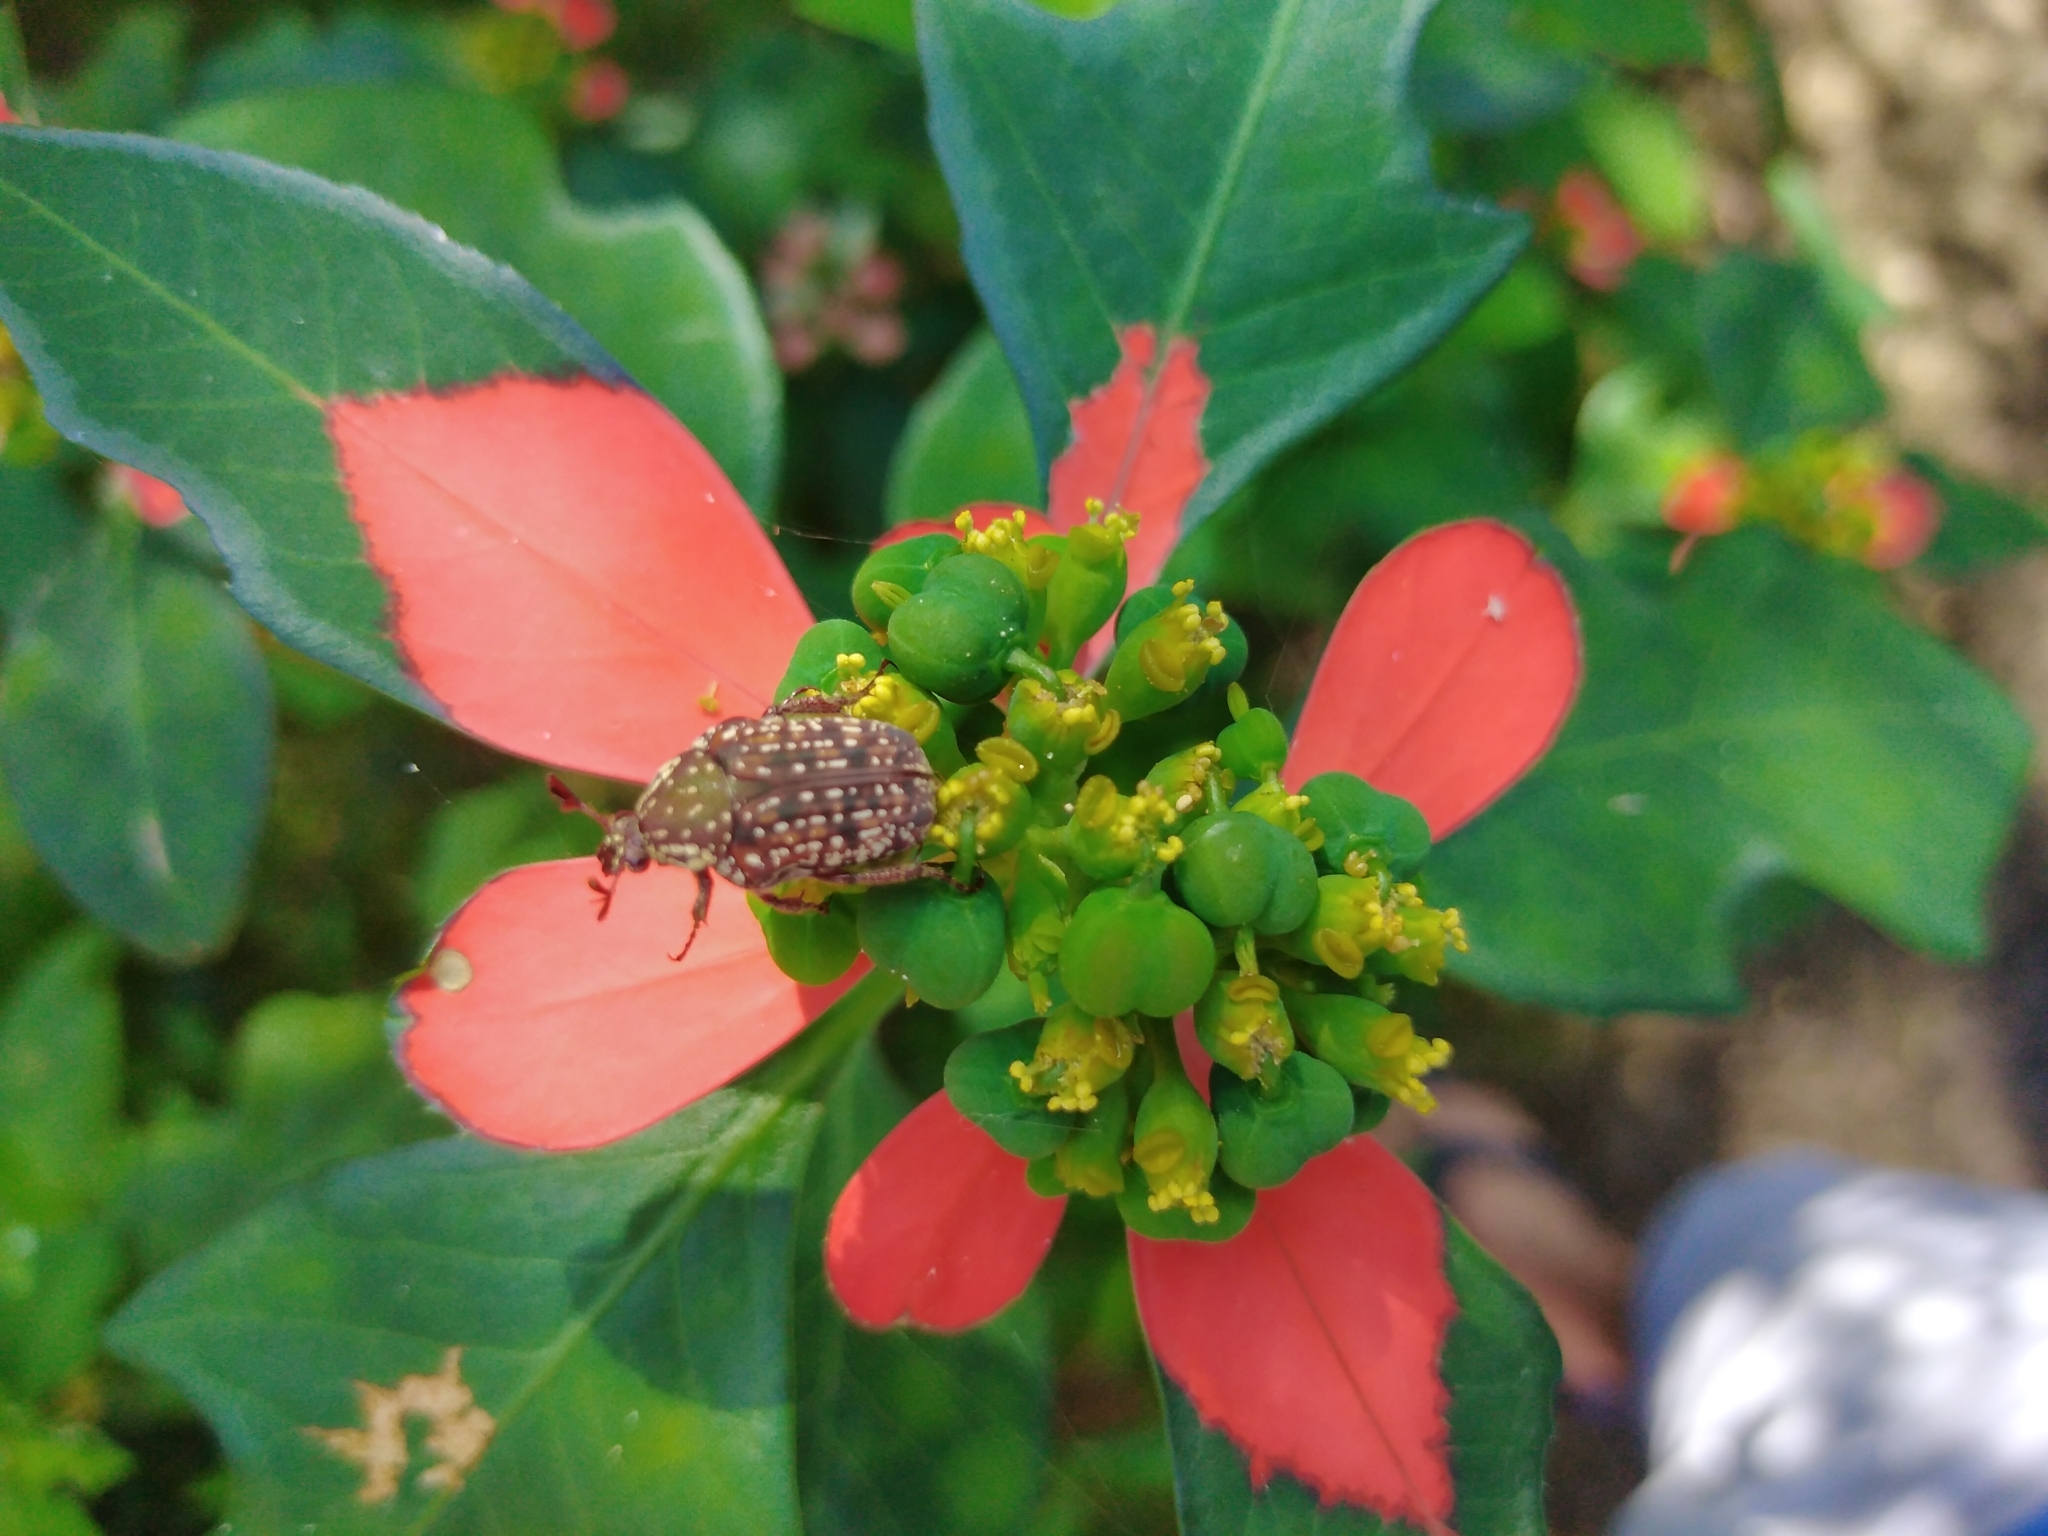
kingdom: Animalia
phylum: Arthropoda
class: Insecta
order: Coleoptera
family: Scarabaeidae
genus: Elaphinis
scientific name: Elaphinis delagoensis
